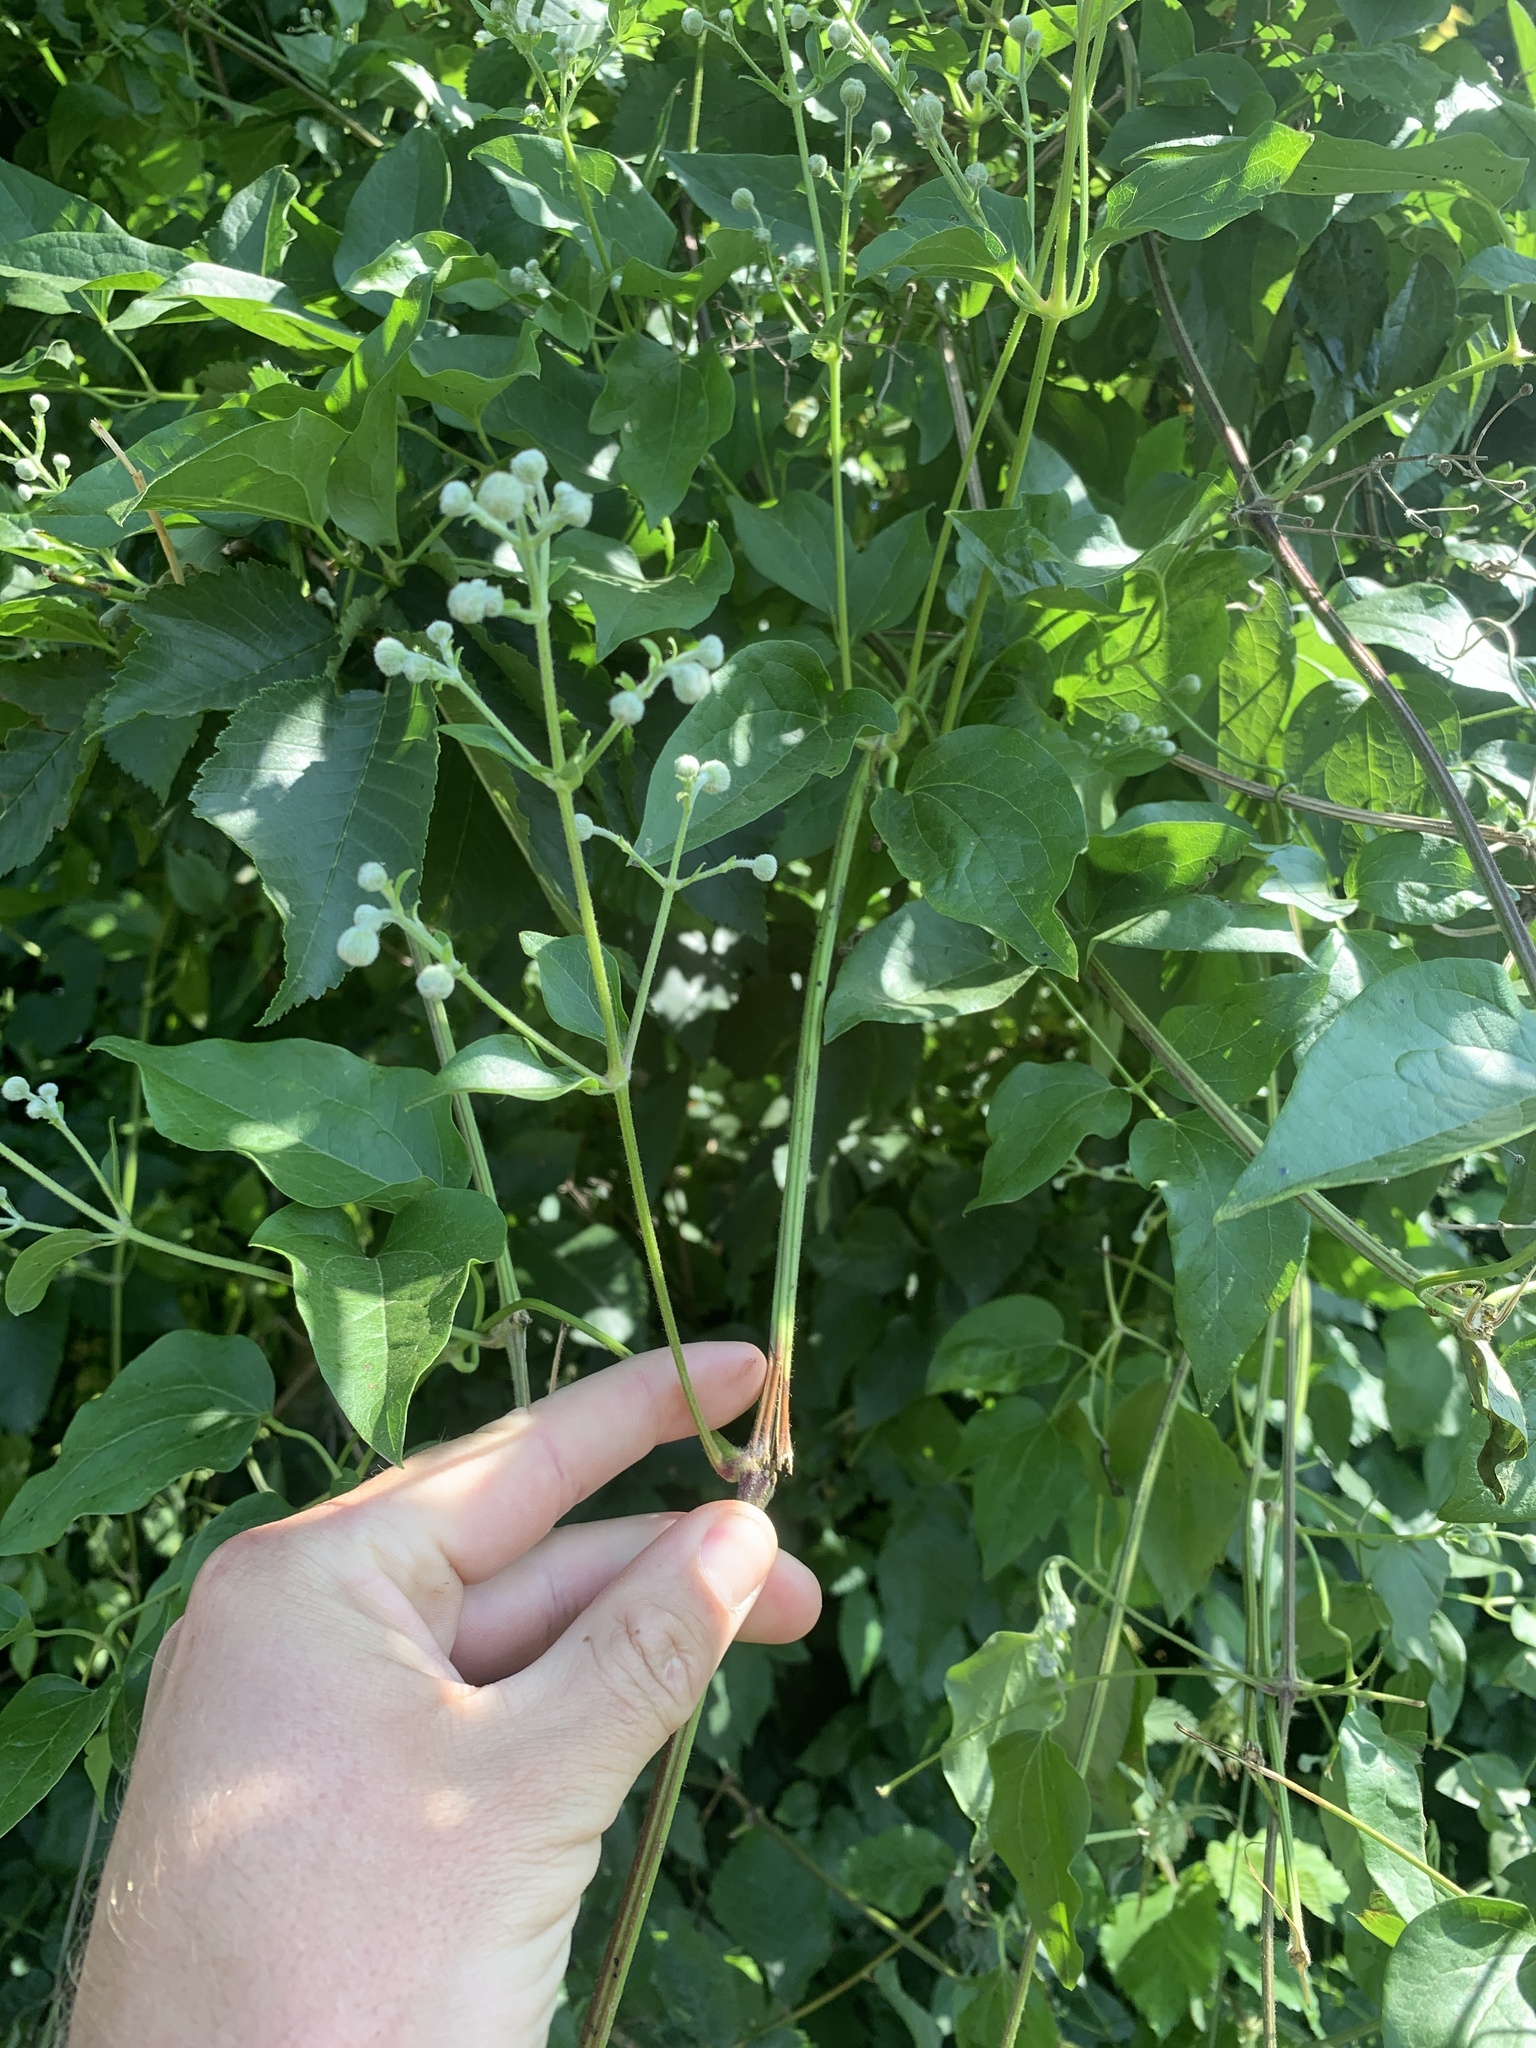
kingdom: Plantae
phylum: Tracheophyta
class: Magnoliopsida
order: Ranunculales
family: Ranunculaceae
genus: Clematis
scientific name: Clematis vitalba
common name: Evergreen clematis
